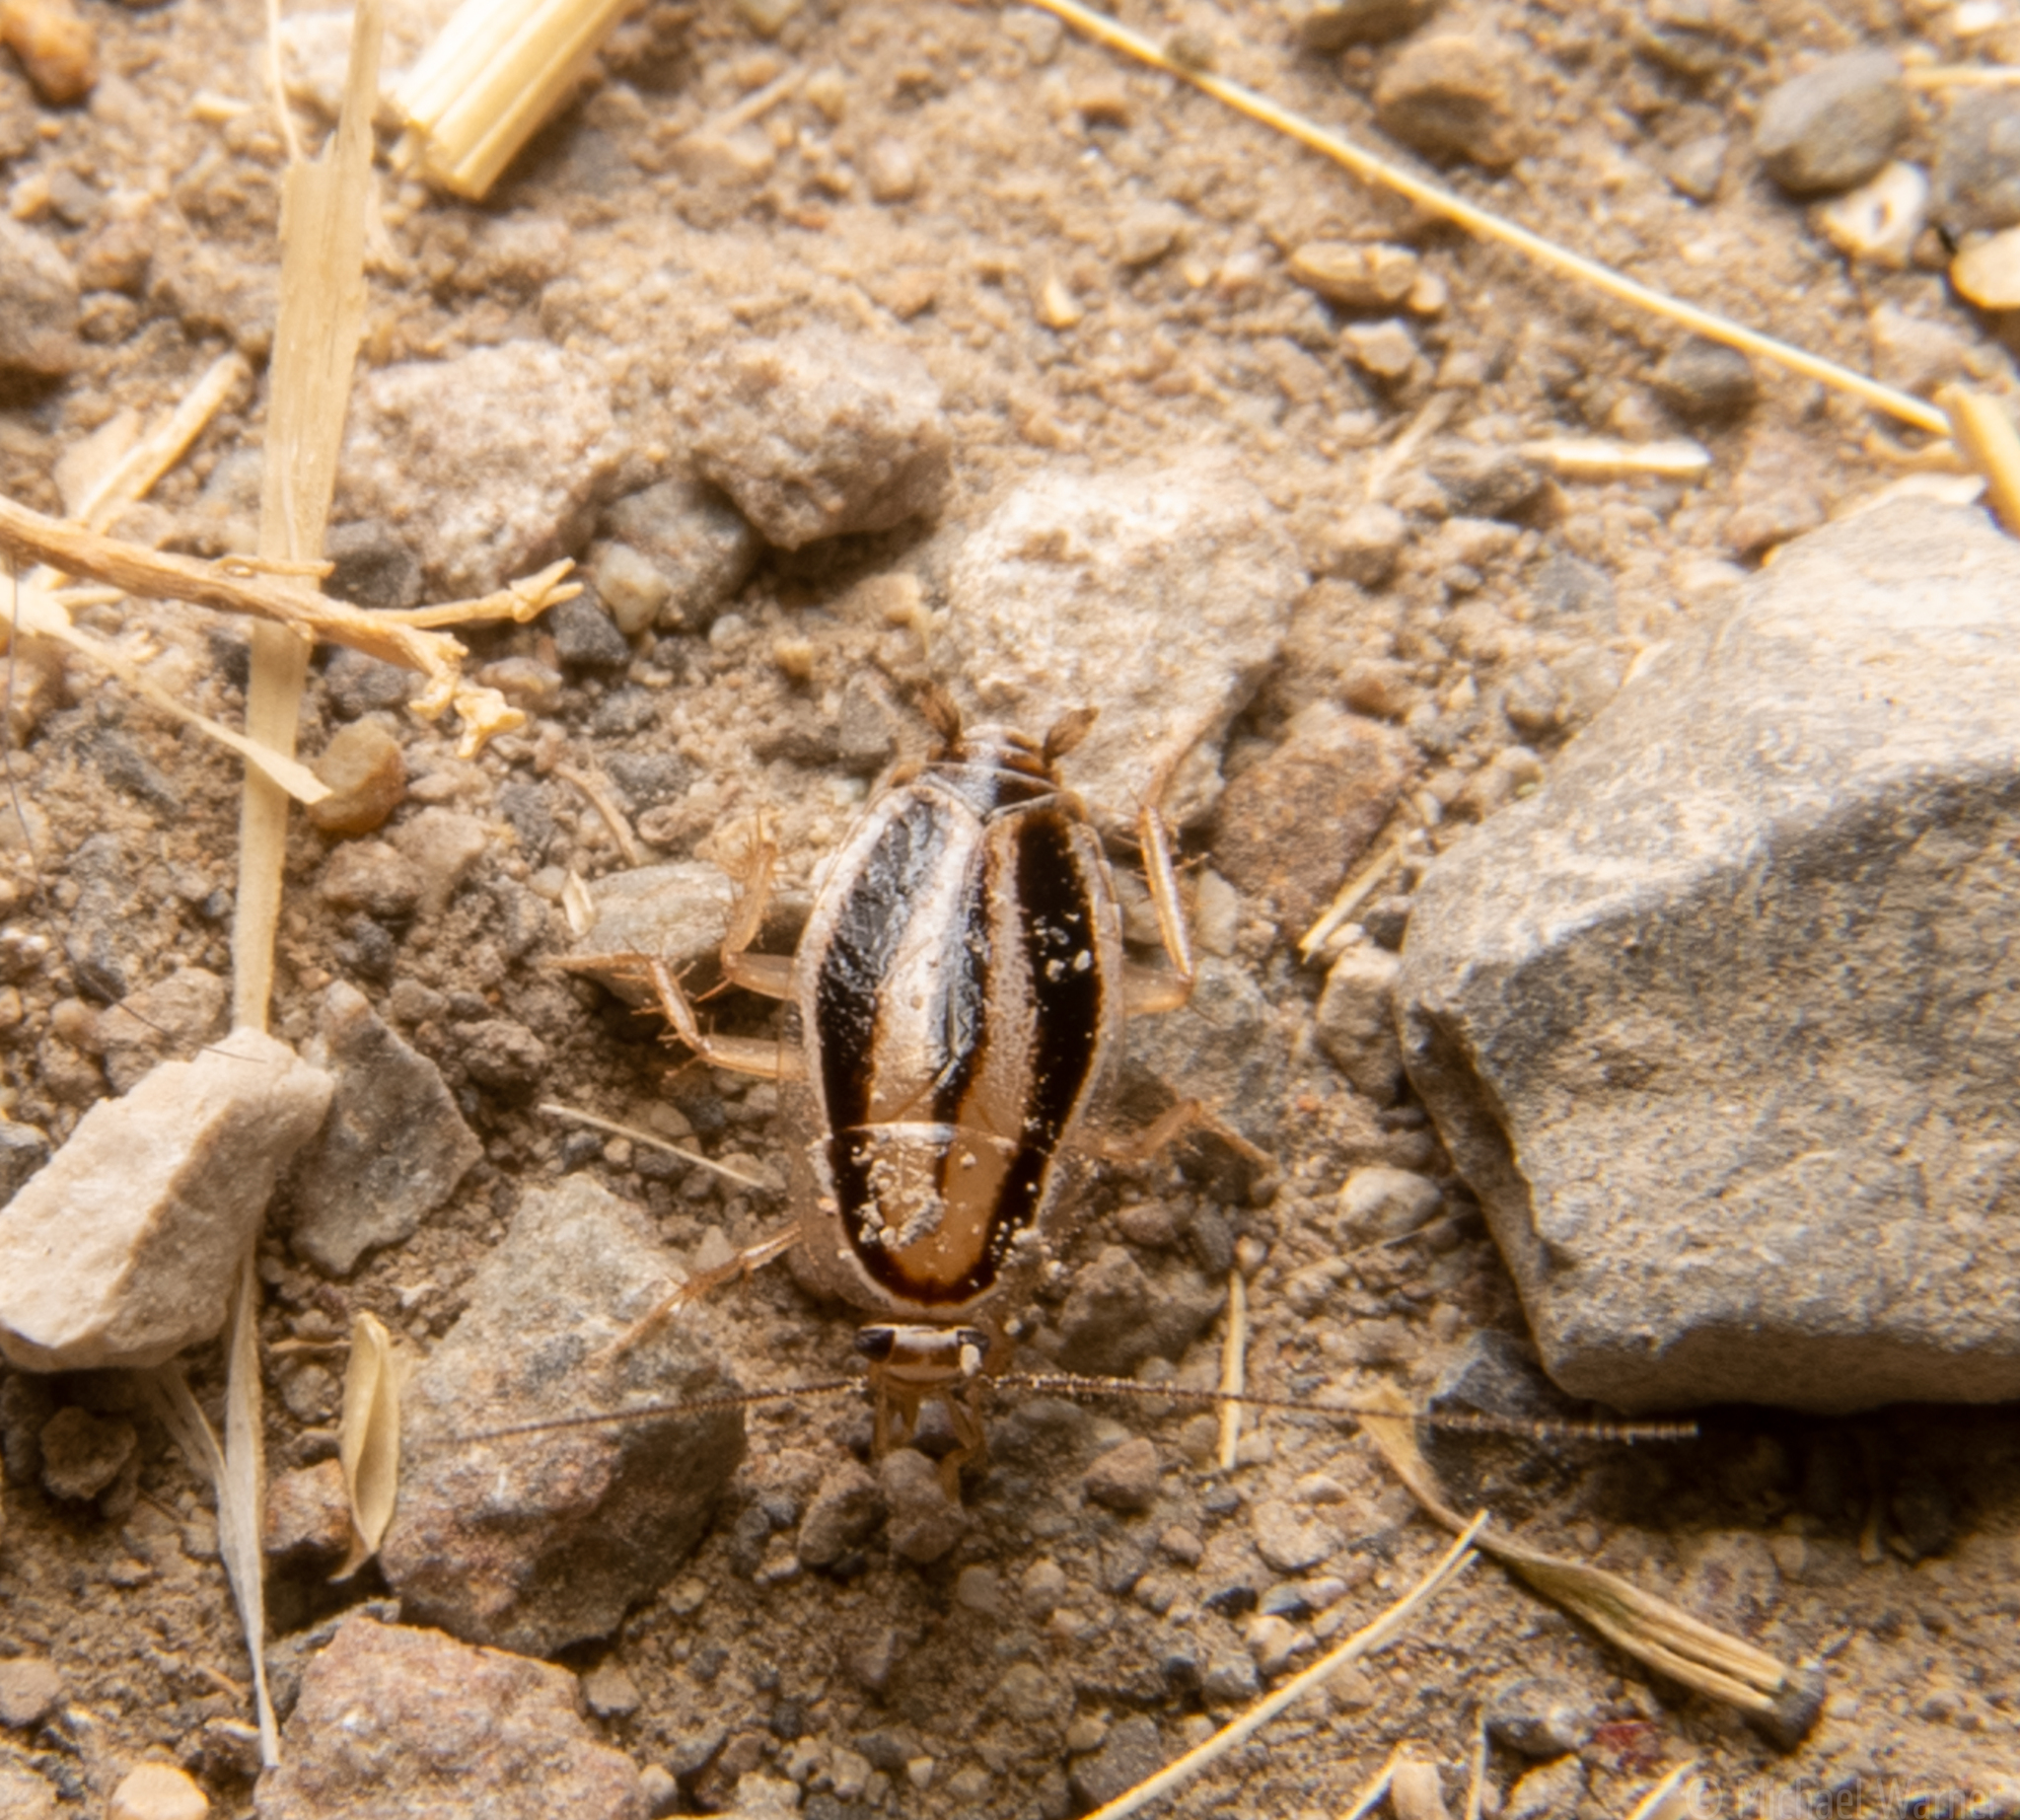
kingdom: Animalia
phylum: Arthropoda
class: Insecta
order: Blattodea
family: Ectobiidae
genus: Luridiblatta
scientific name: Luridiblatta trivittata
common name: Three-lined cockroach
